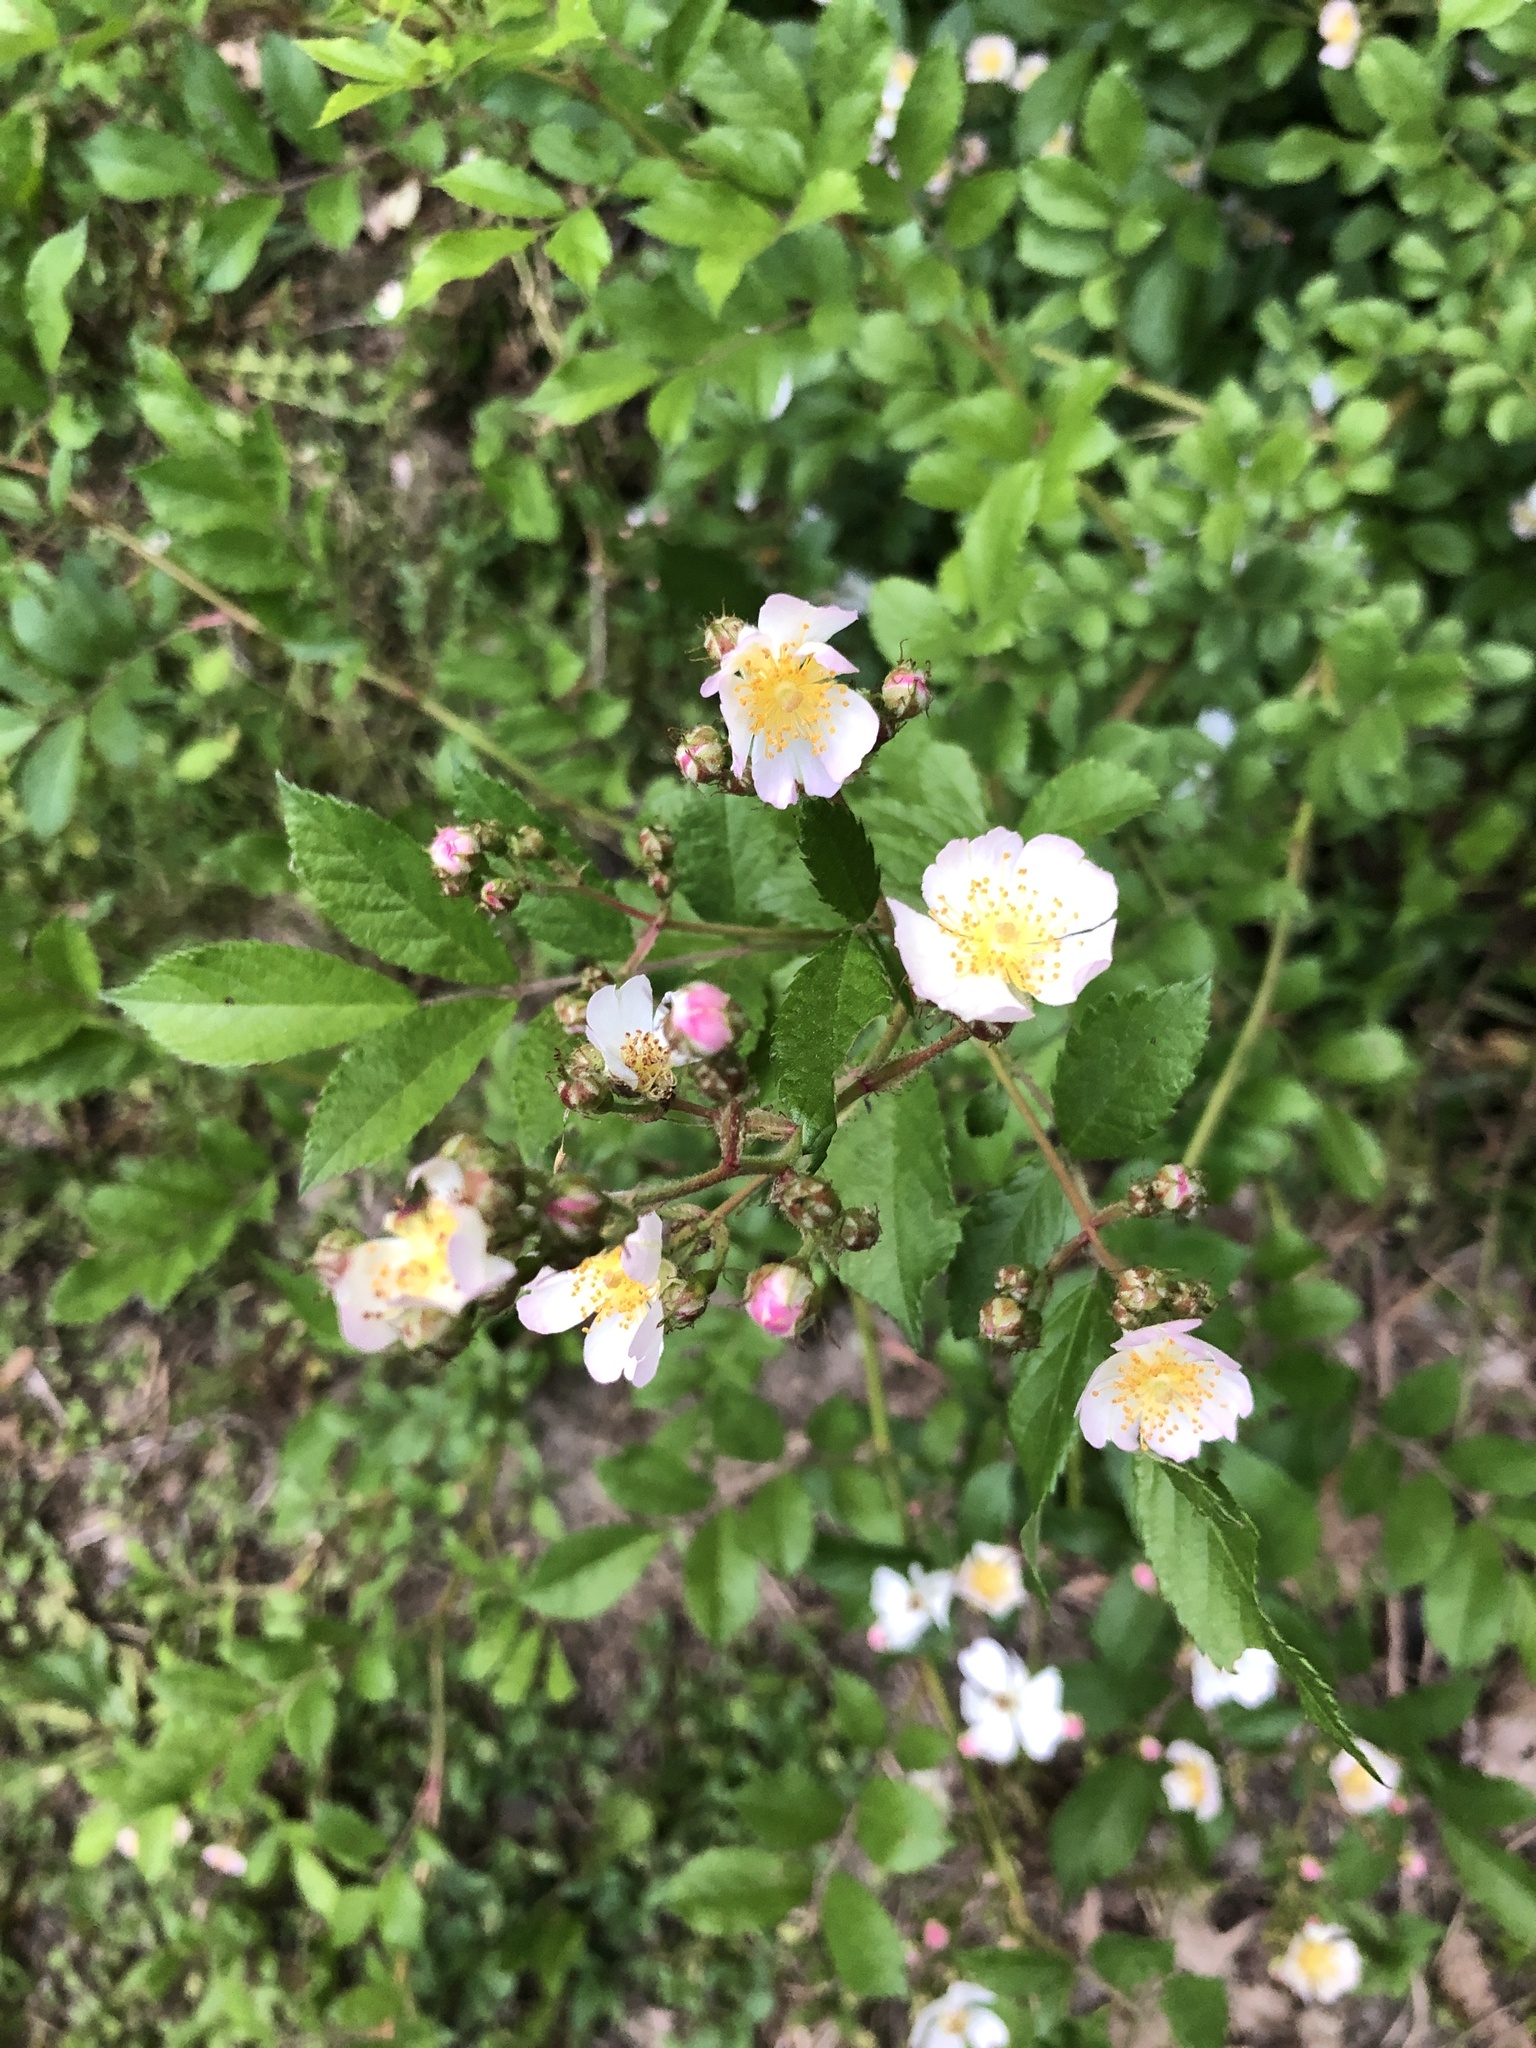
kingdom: Plantae
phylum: Tracheophyta
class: Magnoliopsida
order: Rosales
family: Rosaceae
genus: Rosa
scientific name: Rosa multiflora
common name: Multiflora rose
